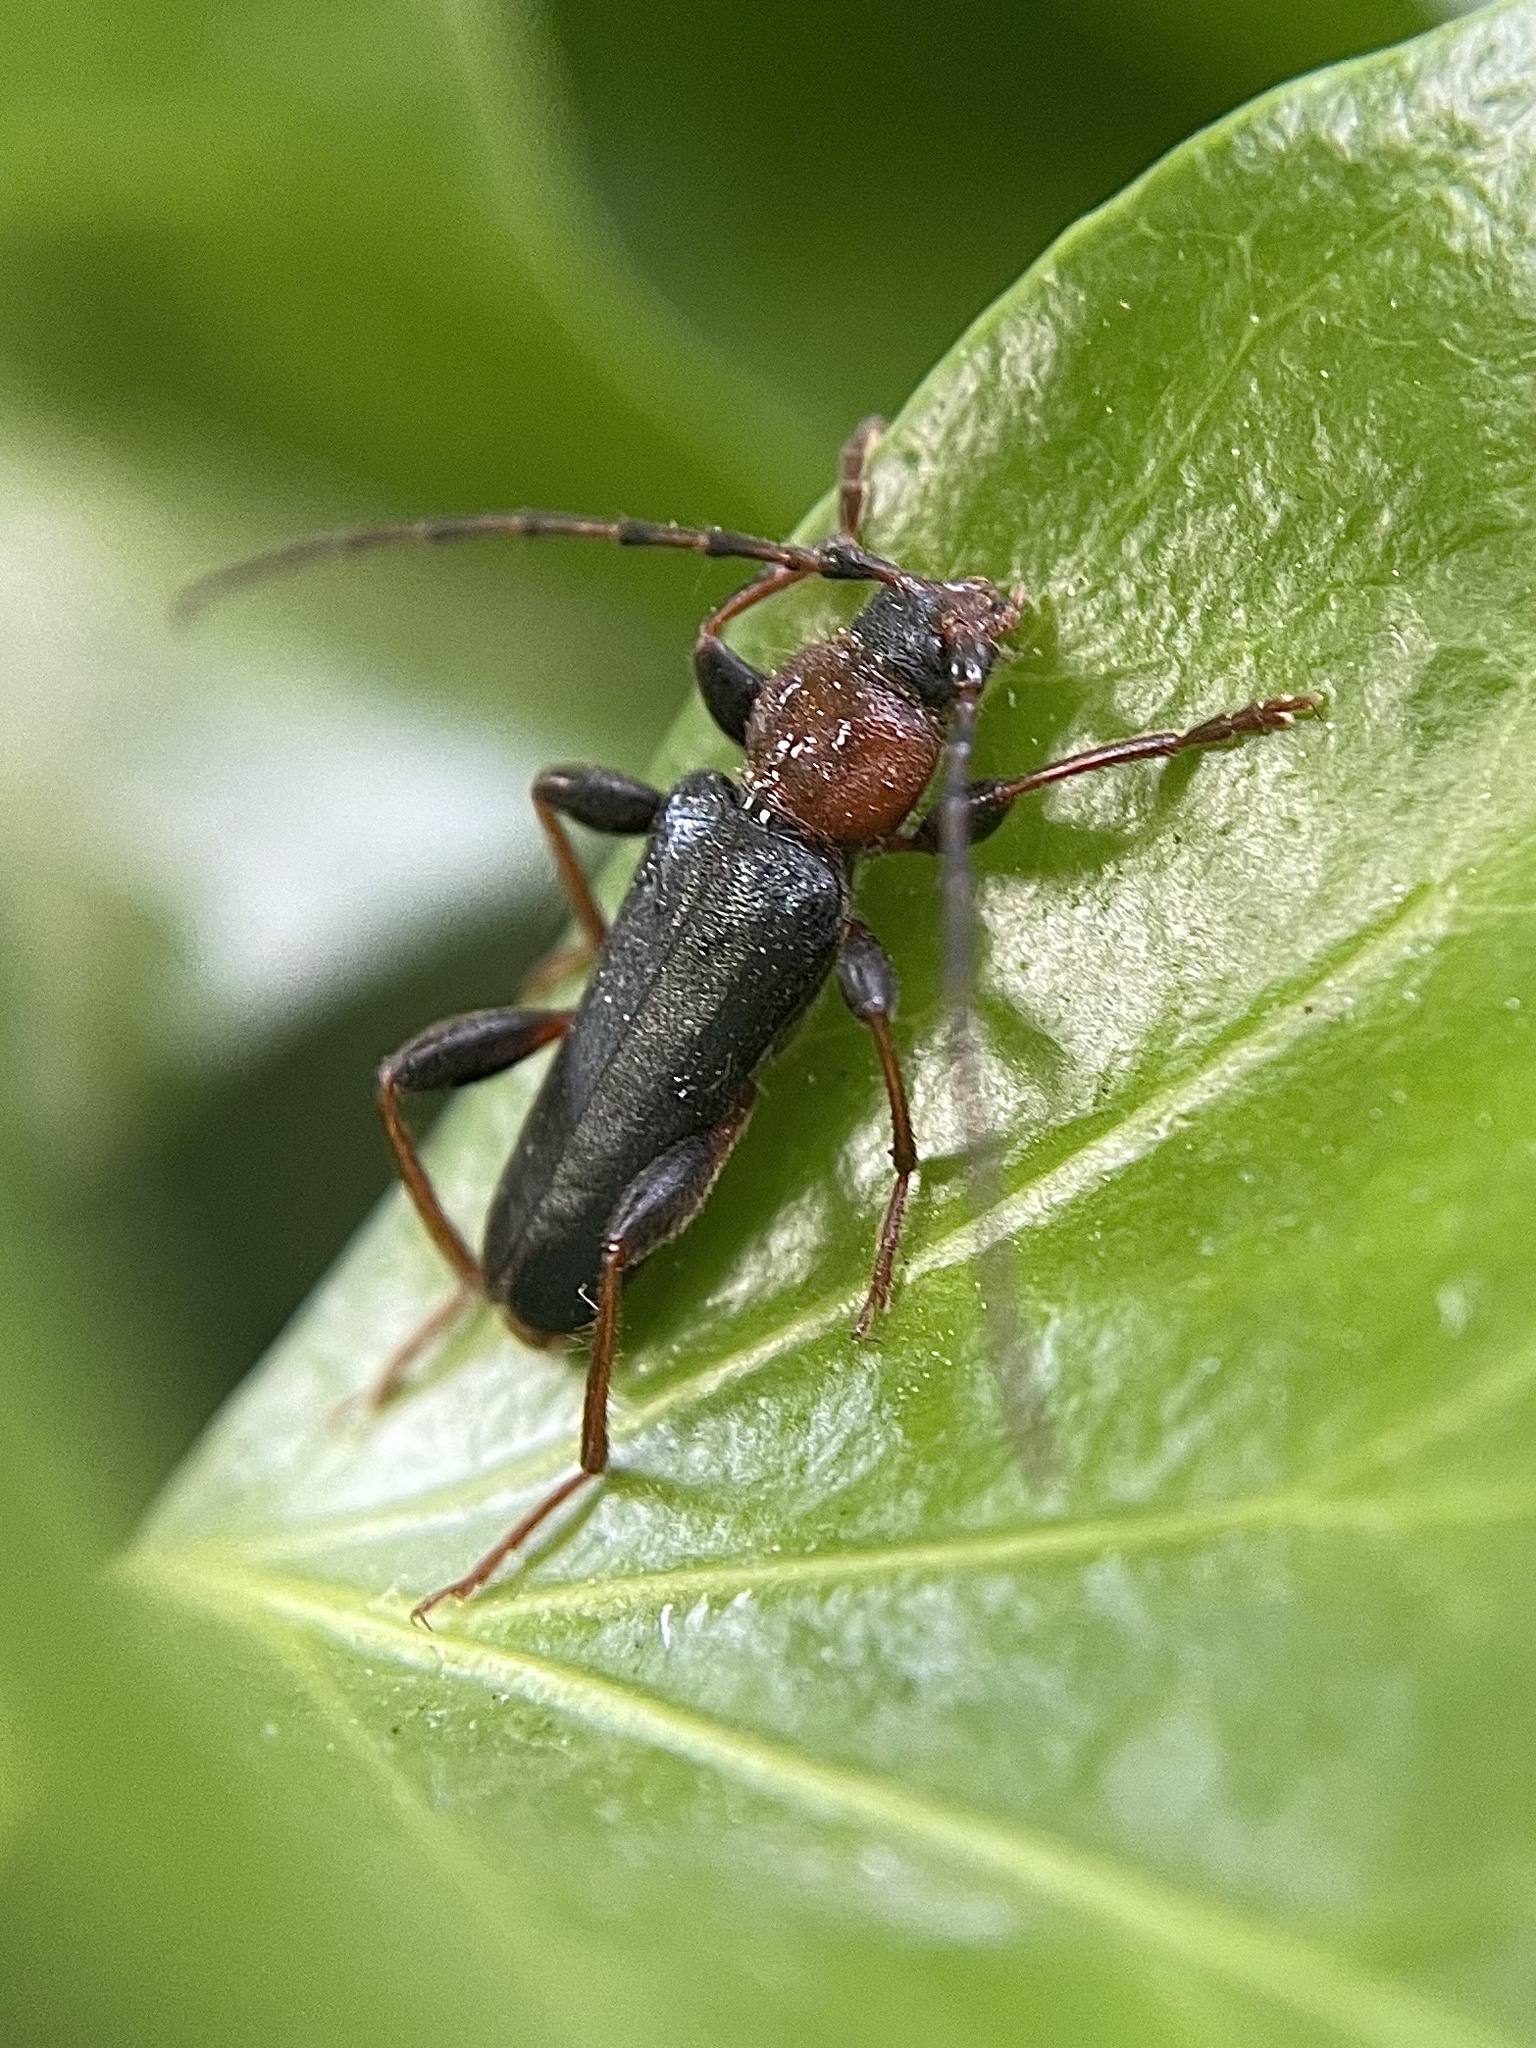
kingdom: Animalia
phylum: Arthropoda
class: Insecta
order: Coleoptera
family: Cerambycidae
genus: Phymatodes
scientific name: Phymatodes testaceus
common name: Long-horned beetle
